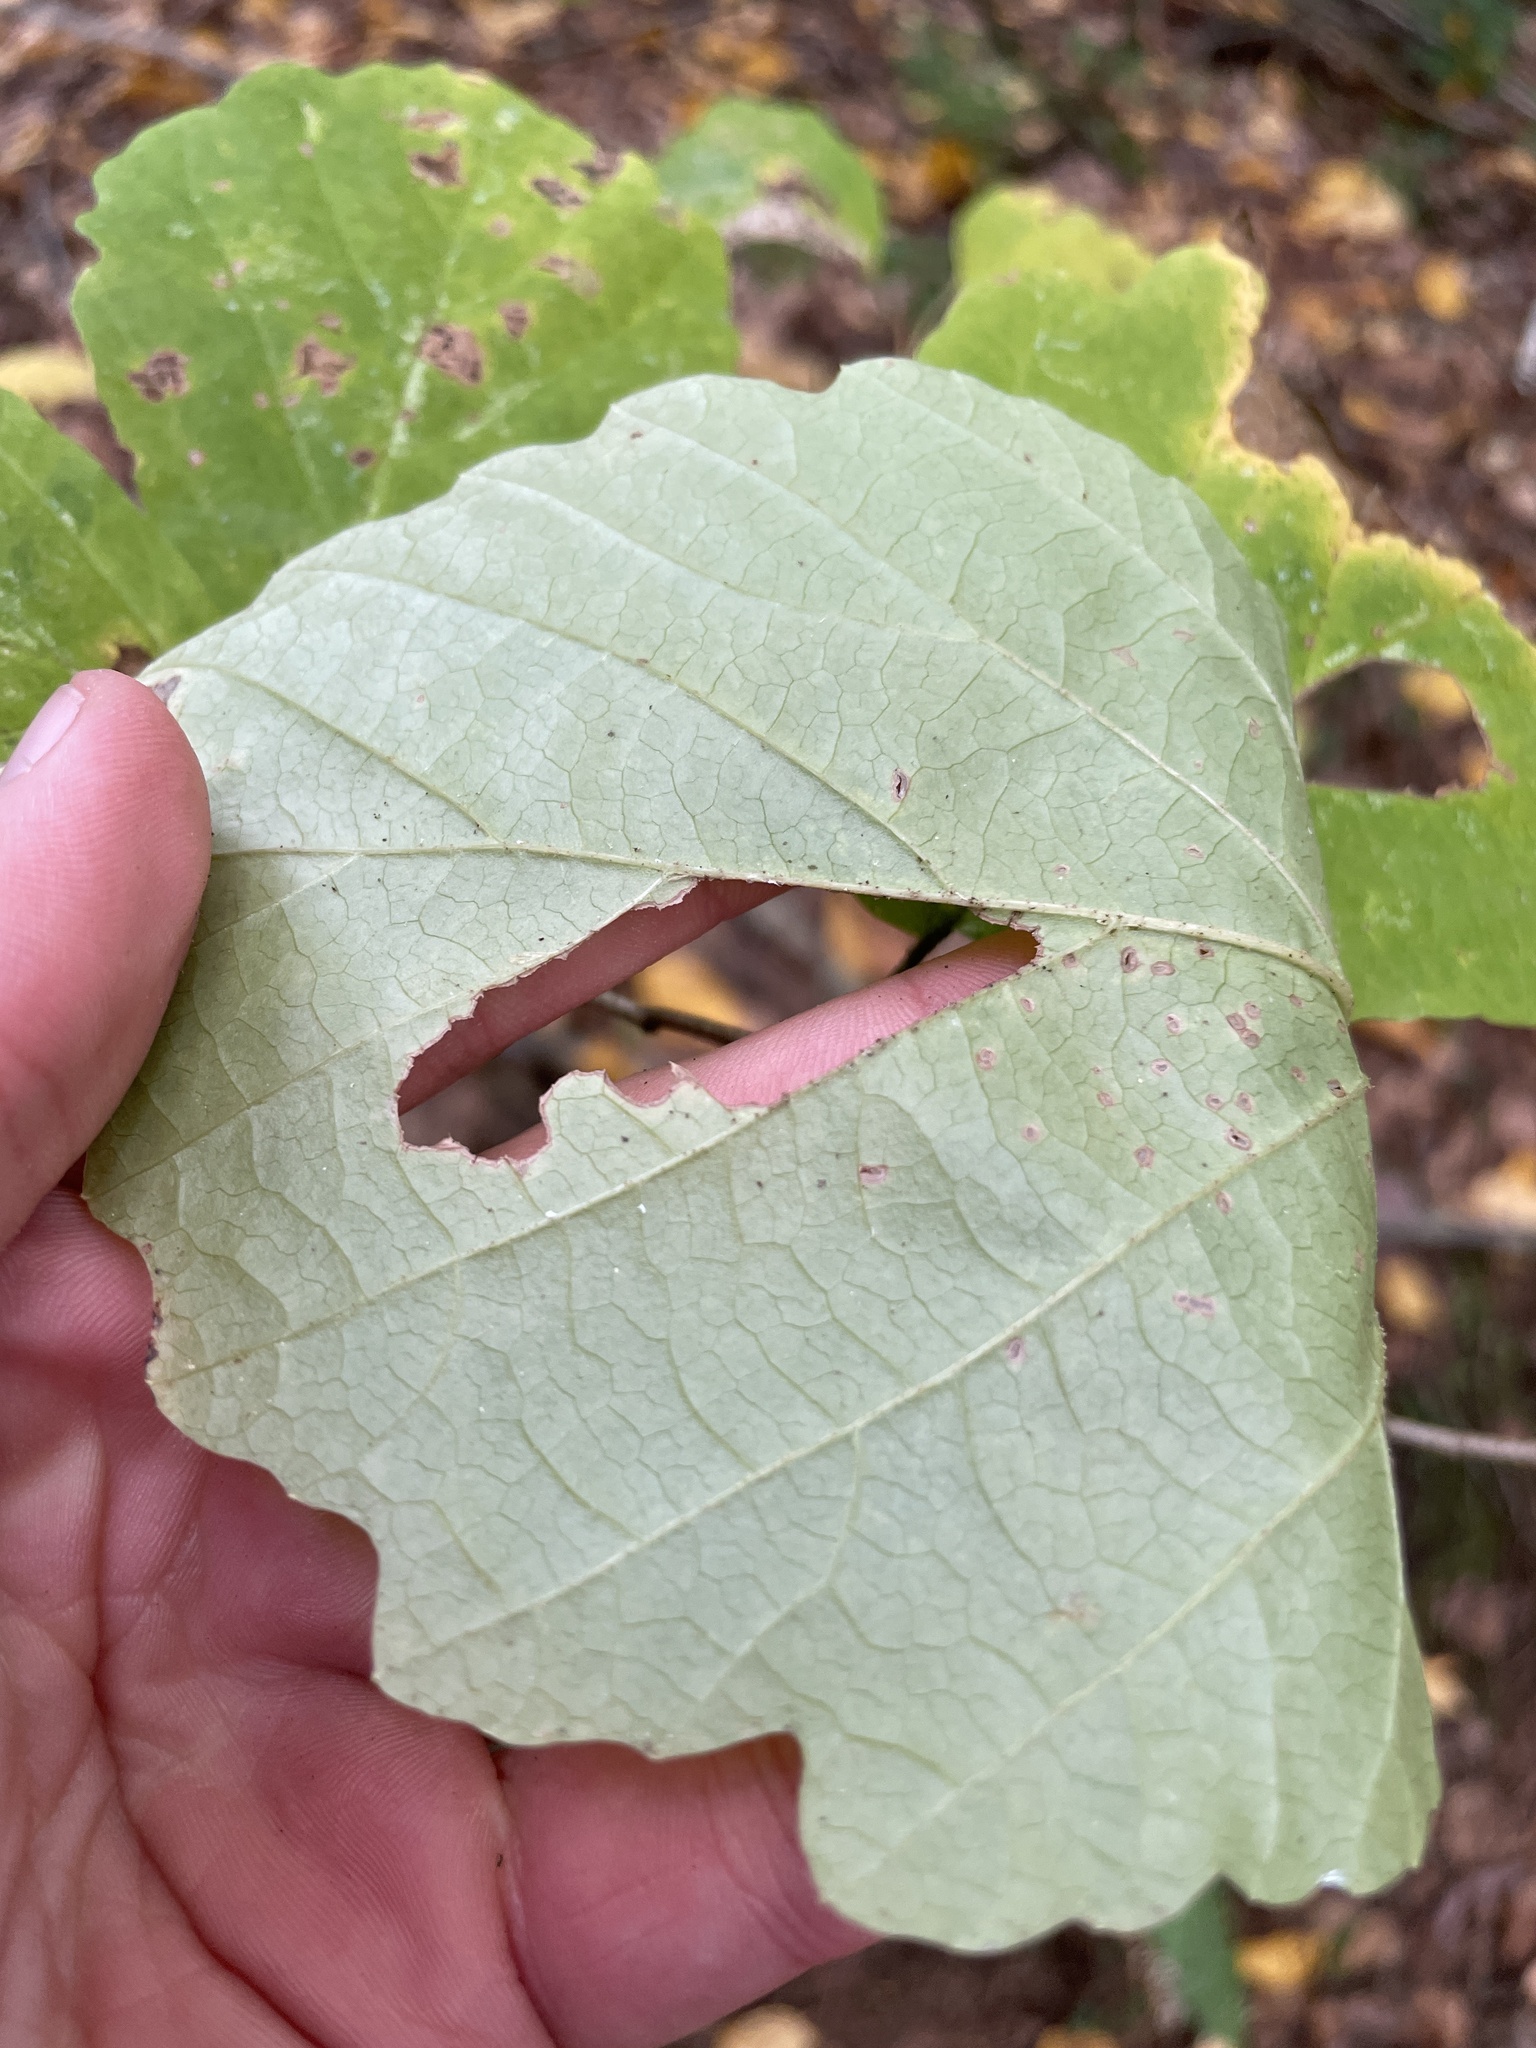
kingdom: Plantae
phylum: Tracheophyta
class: Magnoliopsida
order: Saxifragales
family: Hamamelidaceae
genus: Hamamelis
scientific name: Hamamelis virginiana
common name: Witch-hazel
